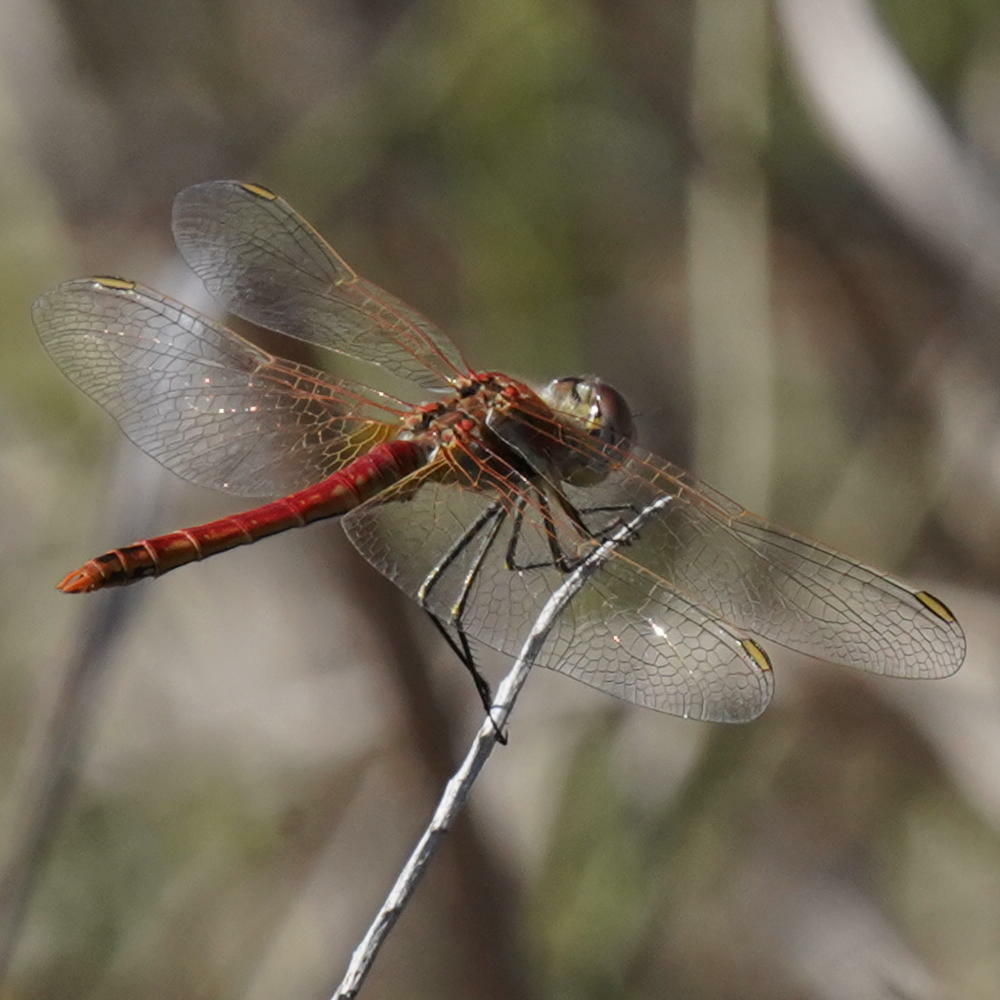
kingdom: Animalia
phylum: Arthropoda
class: Insecta
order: Odonata
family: Libellulidae
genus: Sympetrum
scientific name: Sympetrum fonscolombii
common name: Red-veined darter
